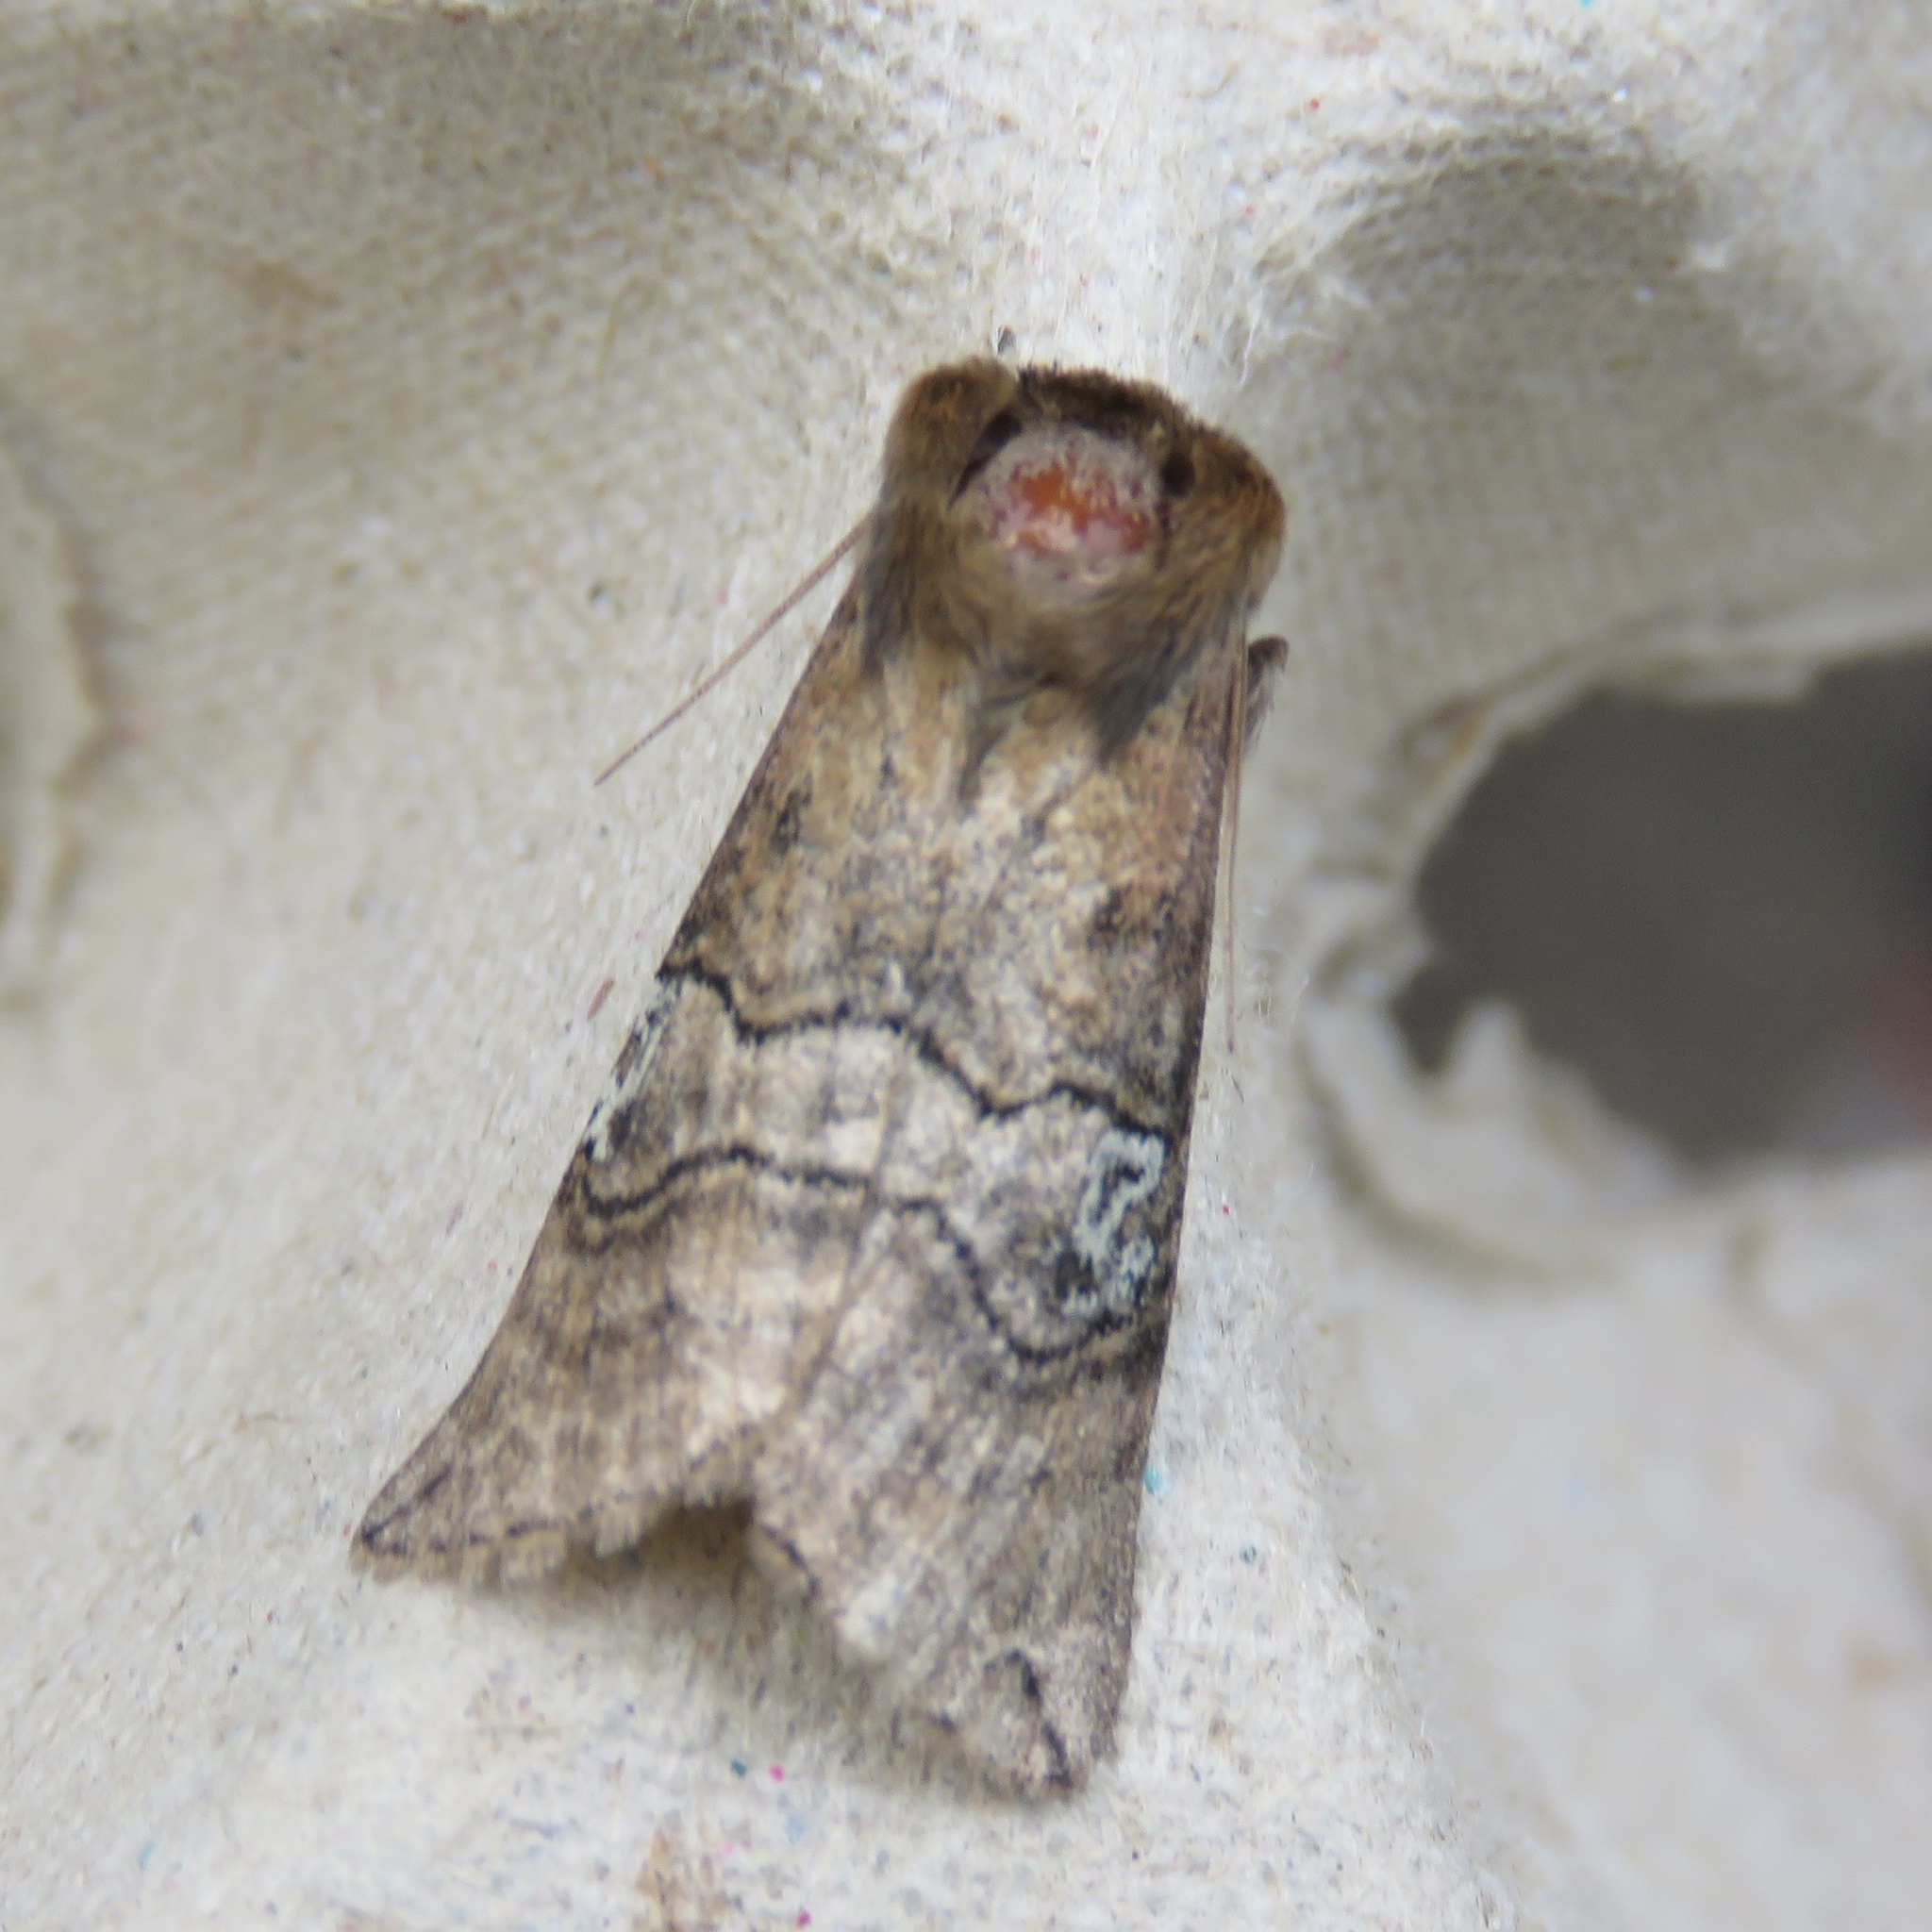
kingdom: Animalia
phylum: Arthropoda
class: Insecta
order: Lepidoptera
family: Drepanidae
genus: Tethea
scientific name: Tethea ocularis
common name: Figure of eighty
